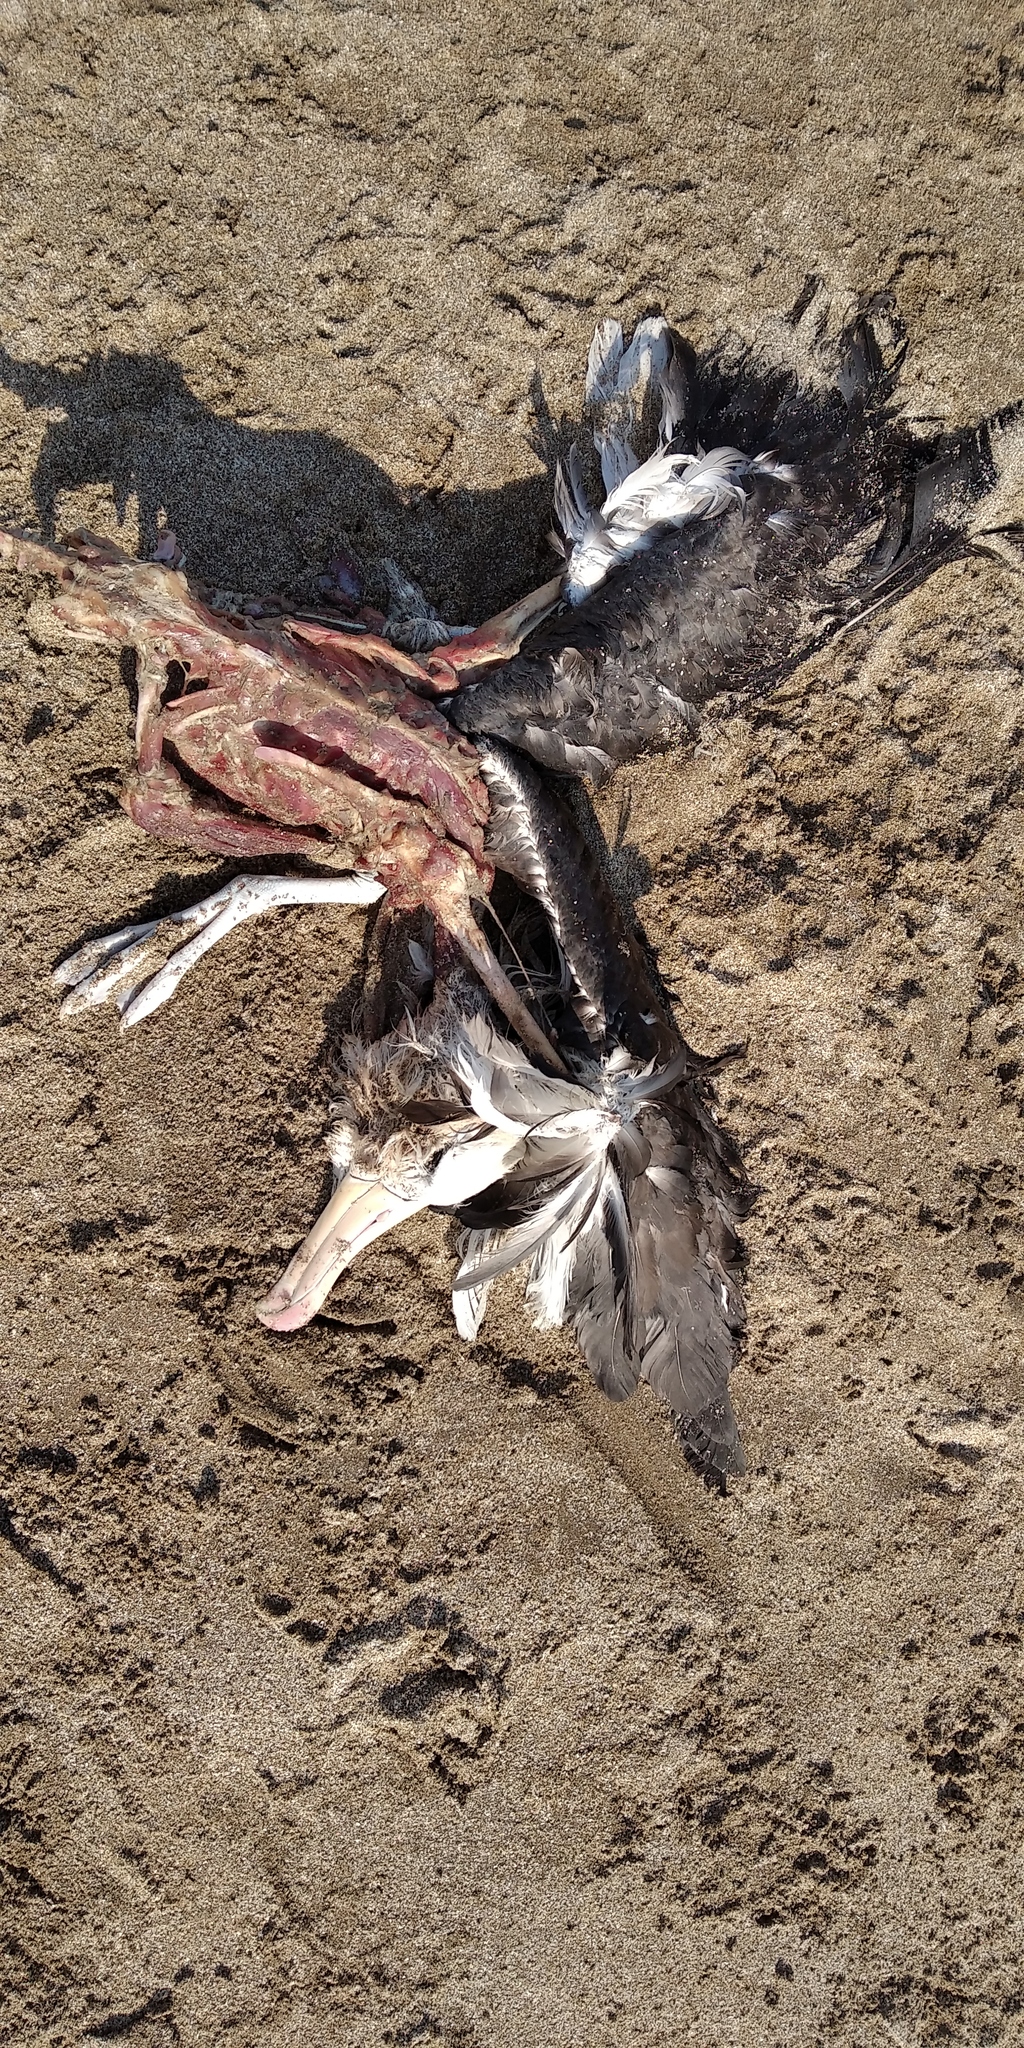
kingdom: Animalia
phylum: Chordata
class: Aves
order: Procellariiformes
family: Diomedeidae
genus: Thalassarche
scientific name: Thalassarche melanophris
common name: Black-browed albatross
